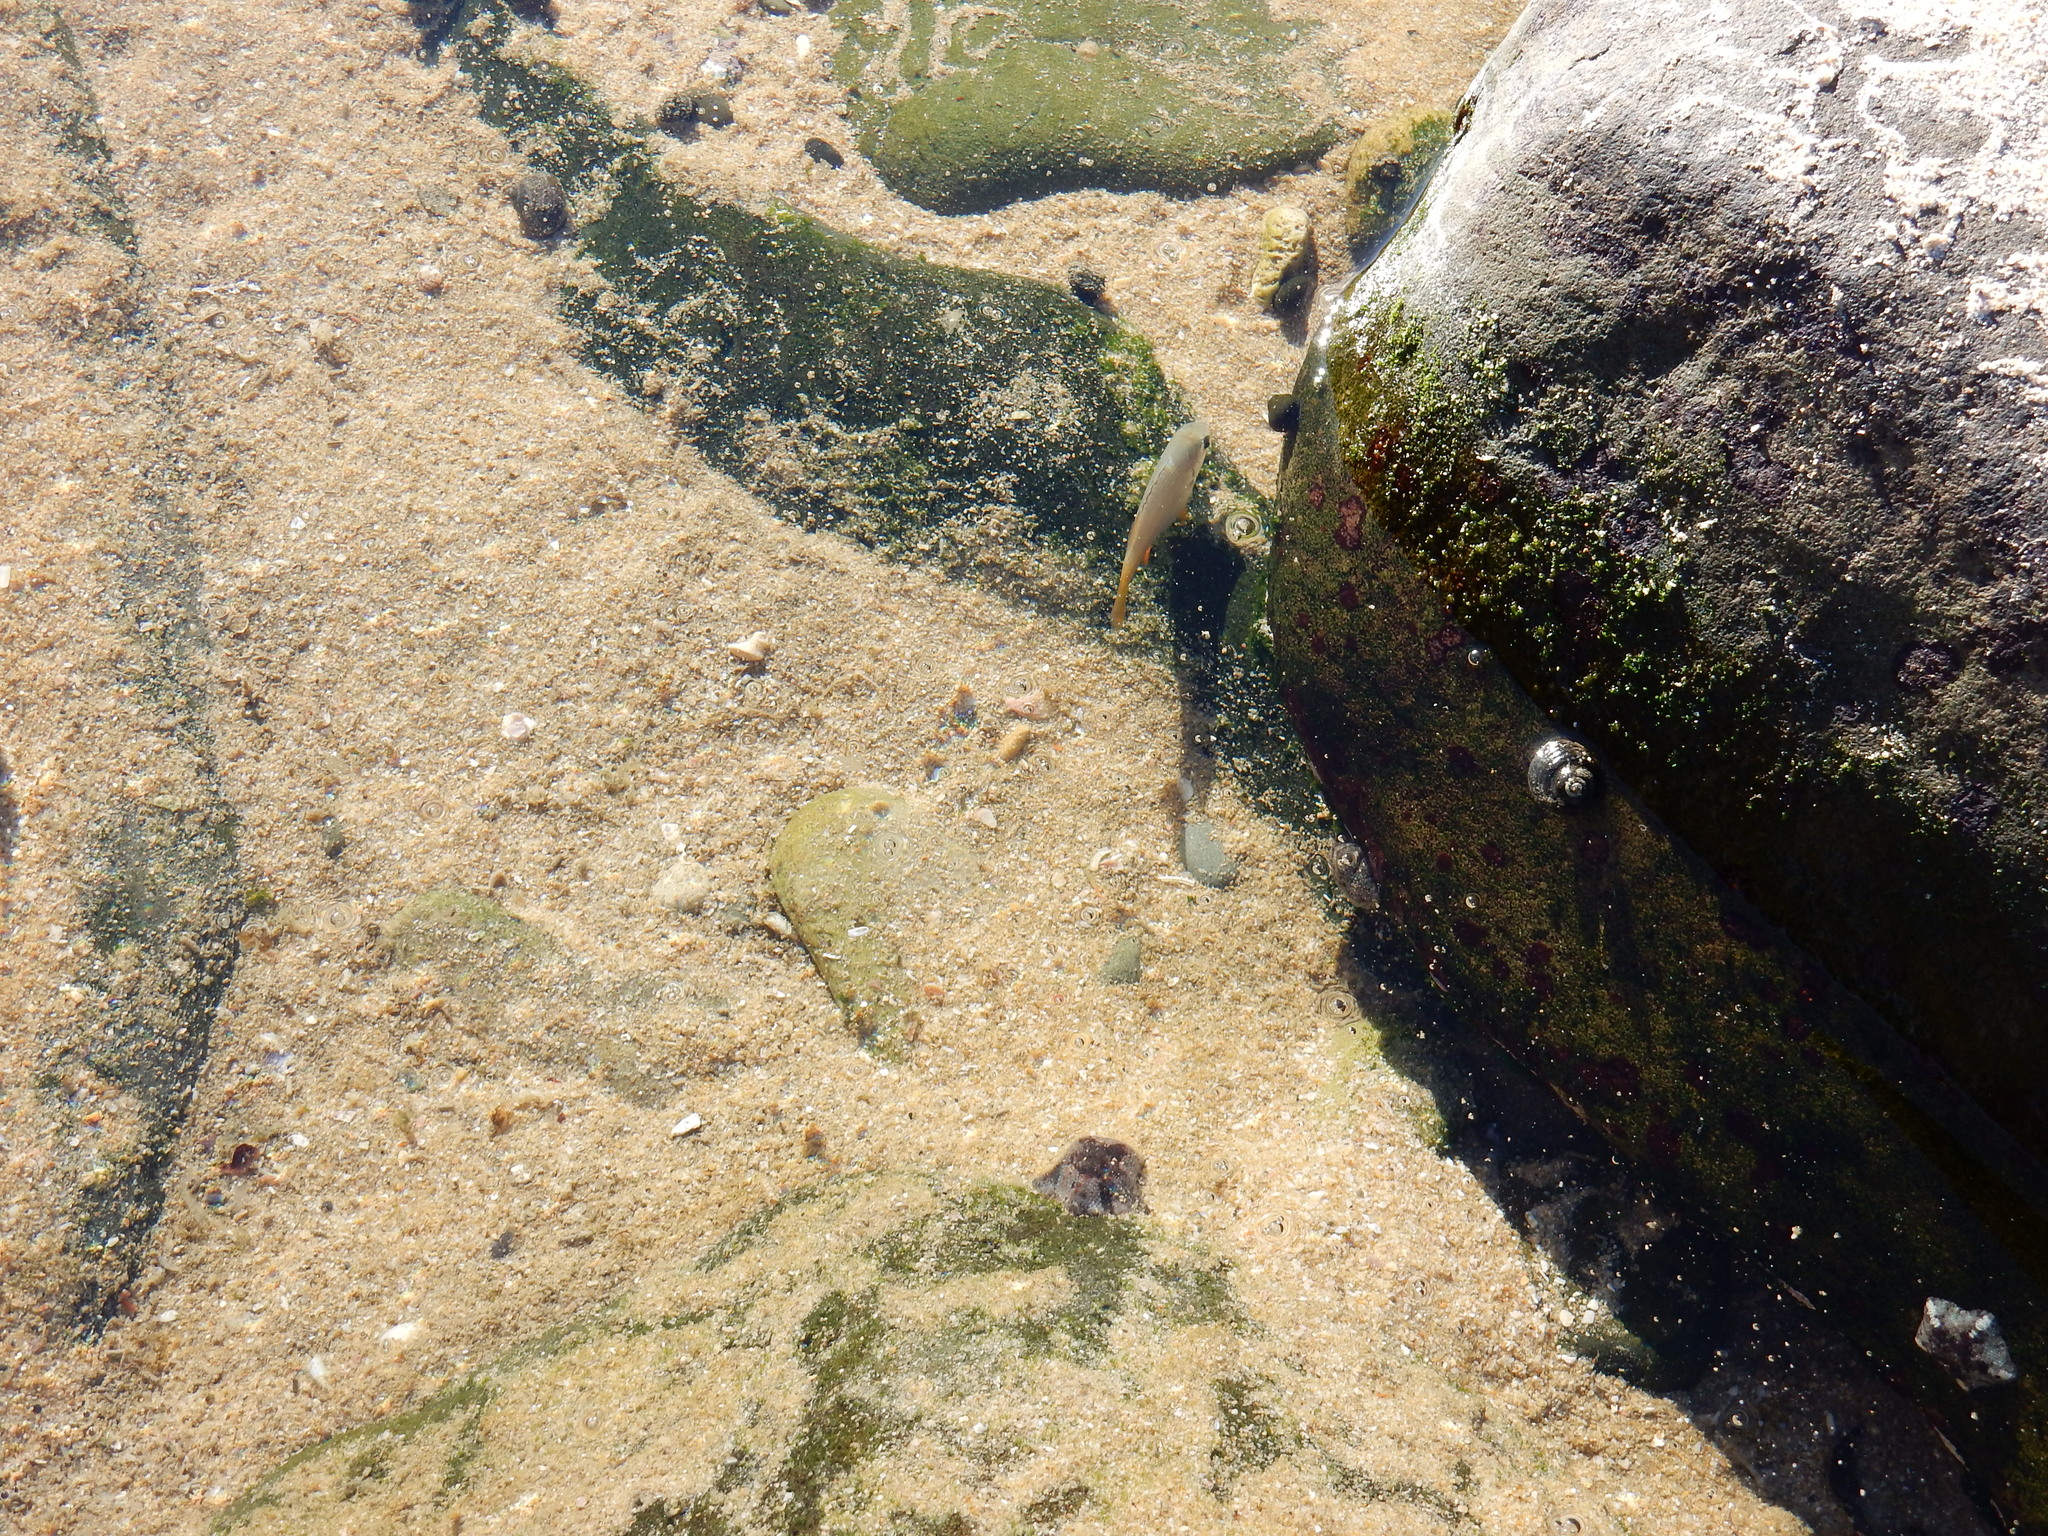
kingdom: Animalia
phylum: Chordata
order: Perciformes
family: Sparidae
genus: Sparodon
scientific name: Sparodon durbanensis
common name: White musselcracker
